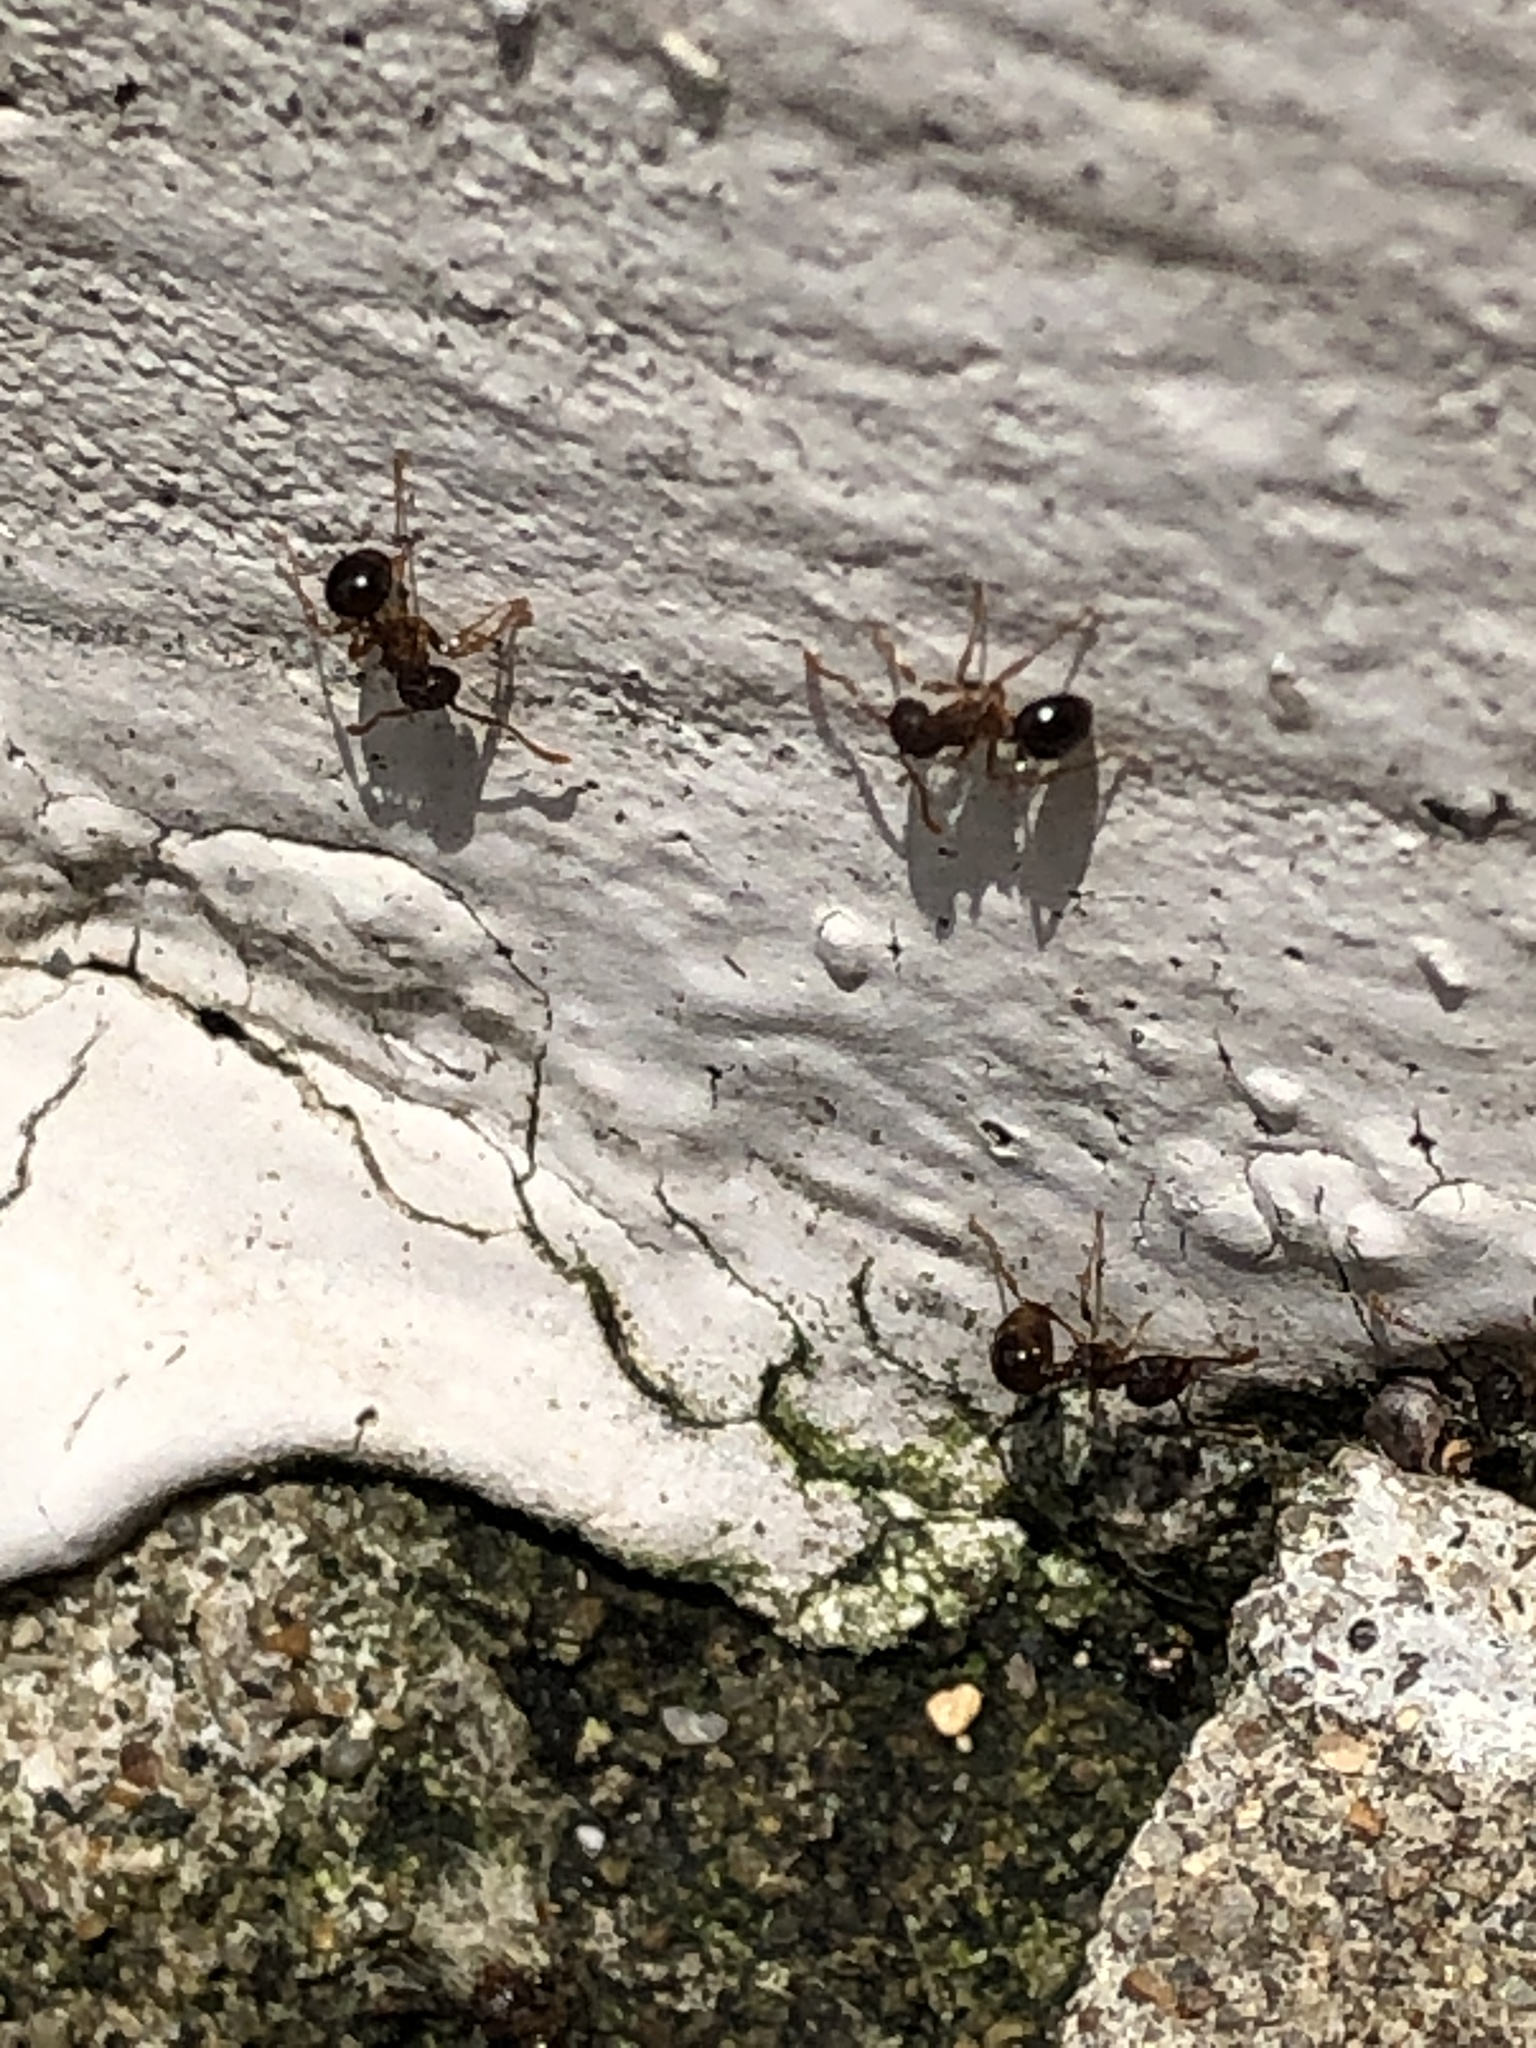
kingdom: Animalia
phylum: Arthropoda
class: Insecta
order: Hymenoptera
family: Formicidae
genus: Pristomyrmex
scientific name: Pristomyrmex punctatus
